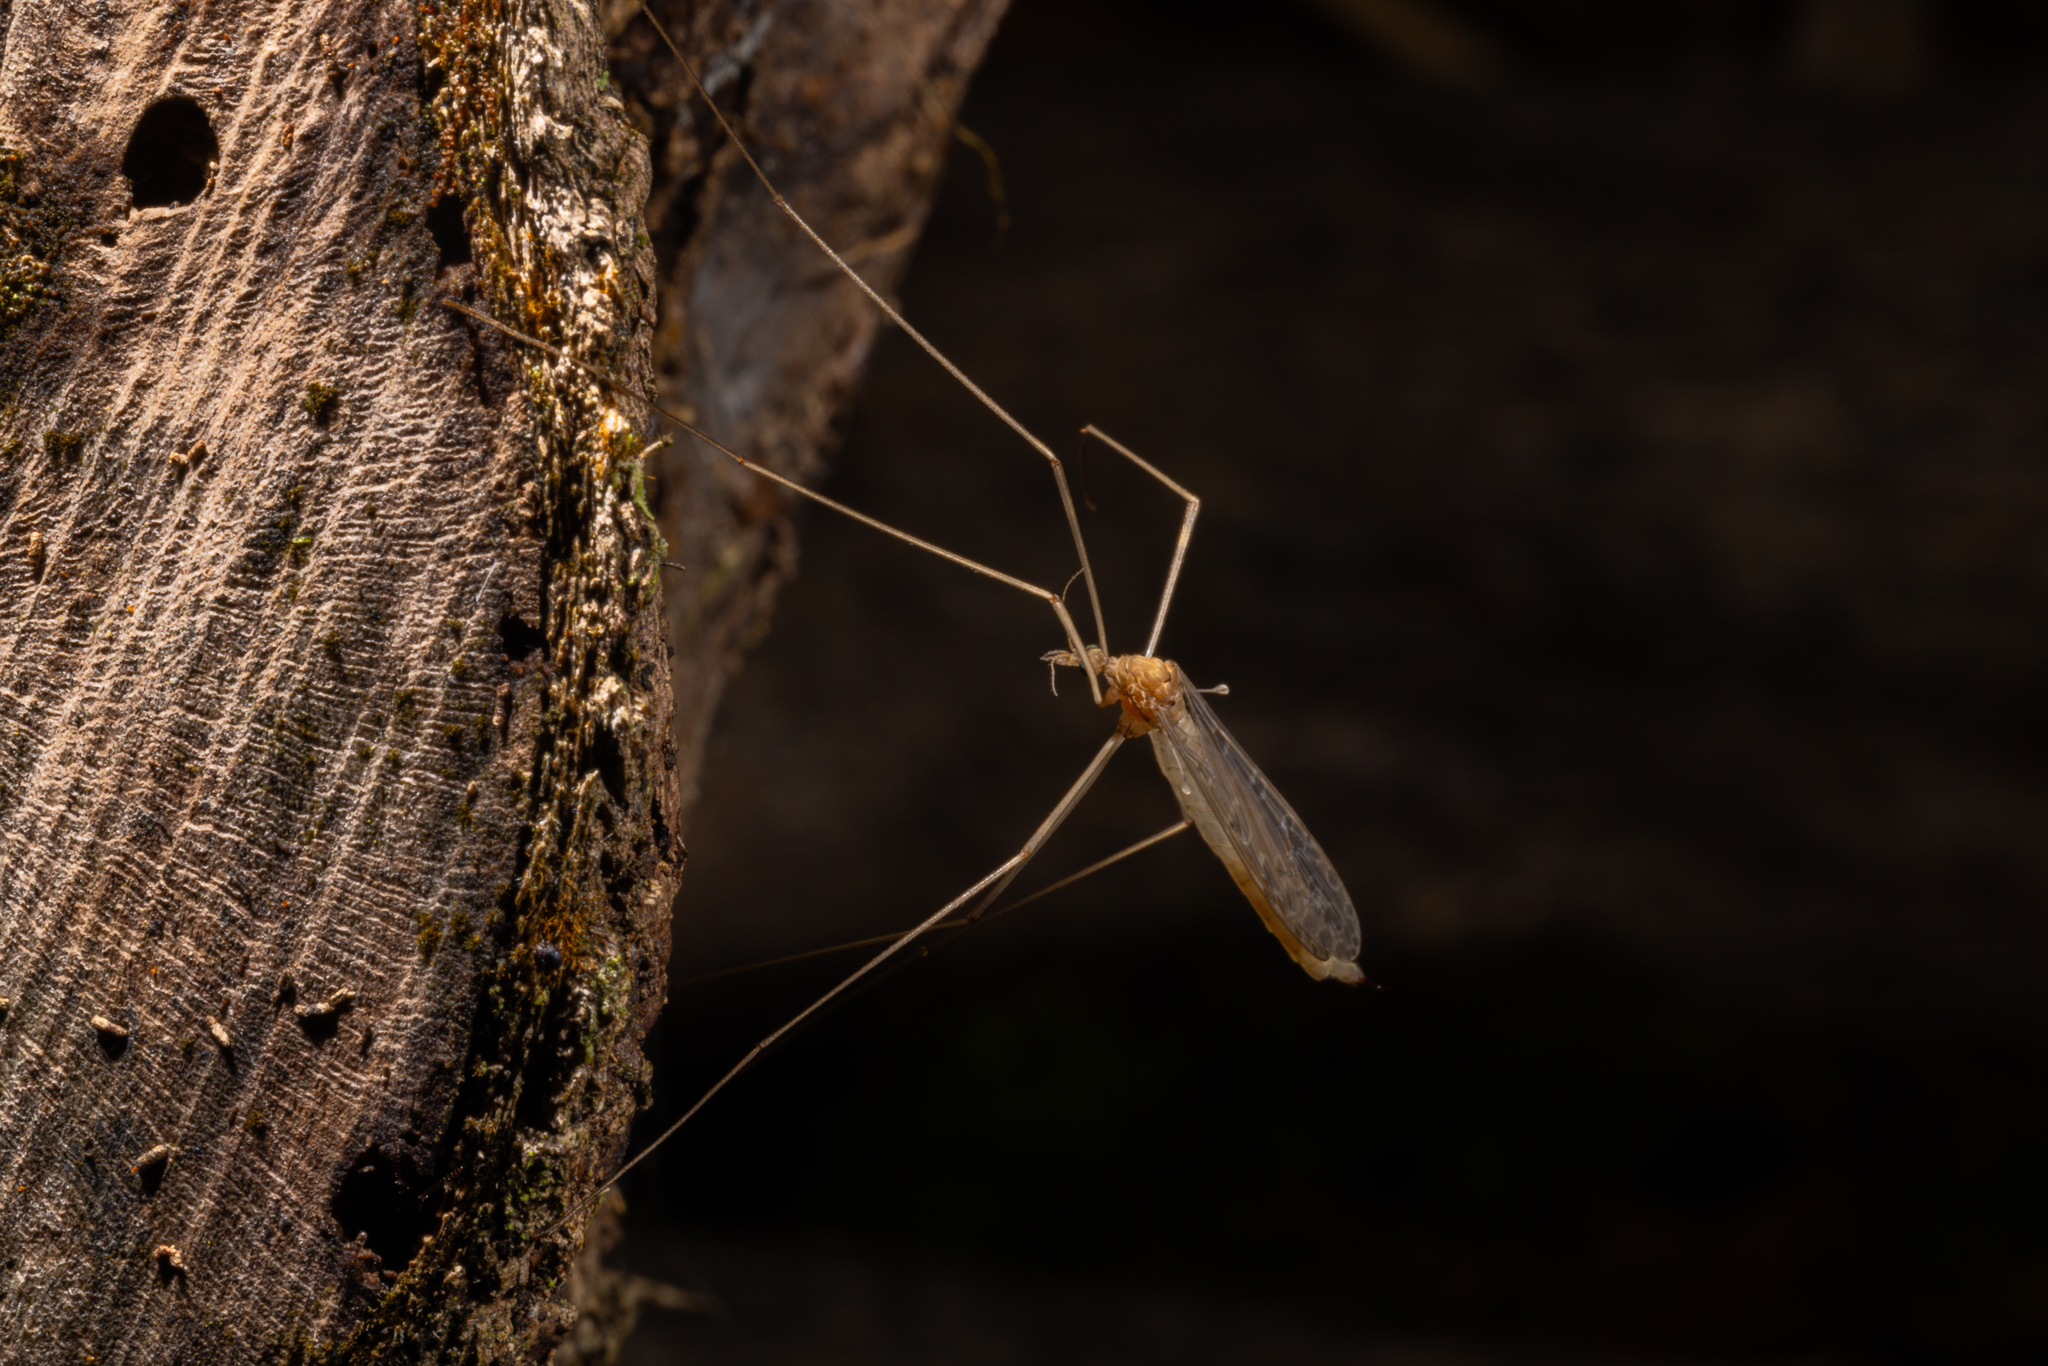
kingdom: Animalia
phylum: Arthropoda
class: Insecta
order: Diptera
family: Limoniidae
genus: Austrolimnophila
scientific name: Austrolimnophila crassipes
